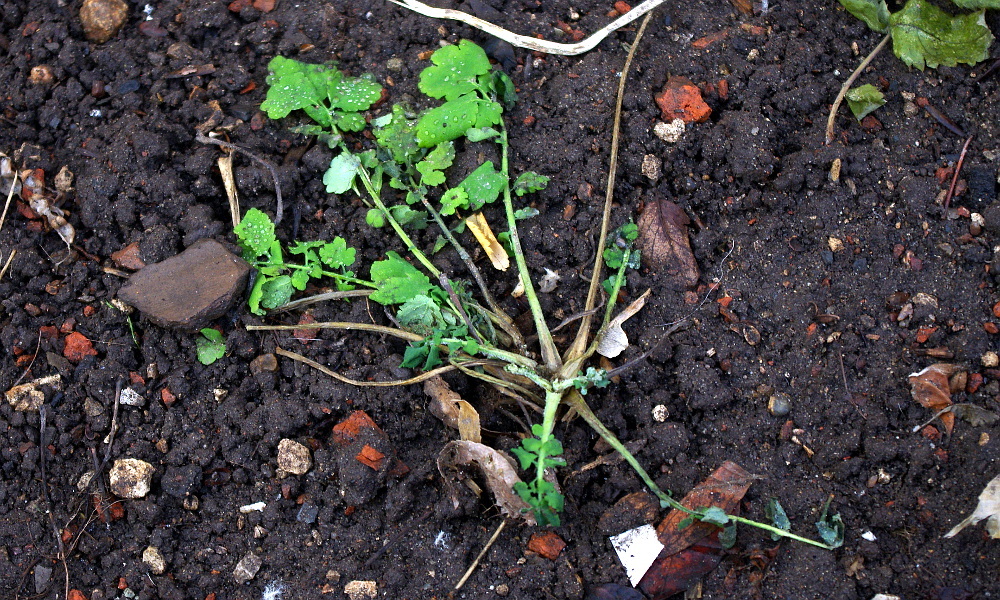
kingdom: Plantae
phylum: Tracheophyta
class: Magnoliopsida
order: Ranunculales
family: Papaveraceae
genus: Chelidonium
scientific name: Chelidonium majus
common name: Greater celandine
